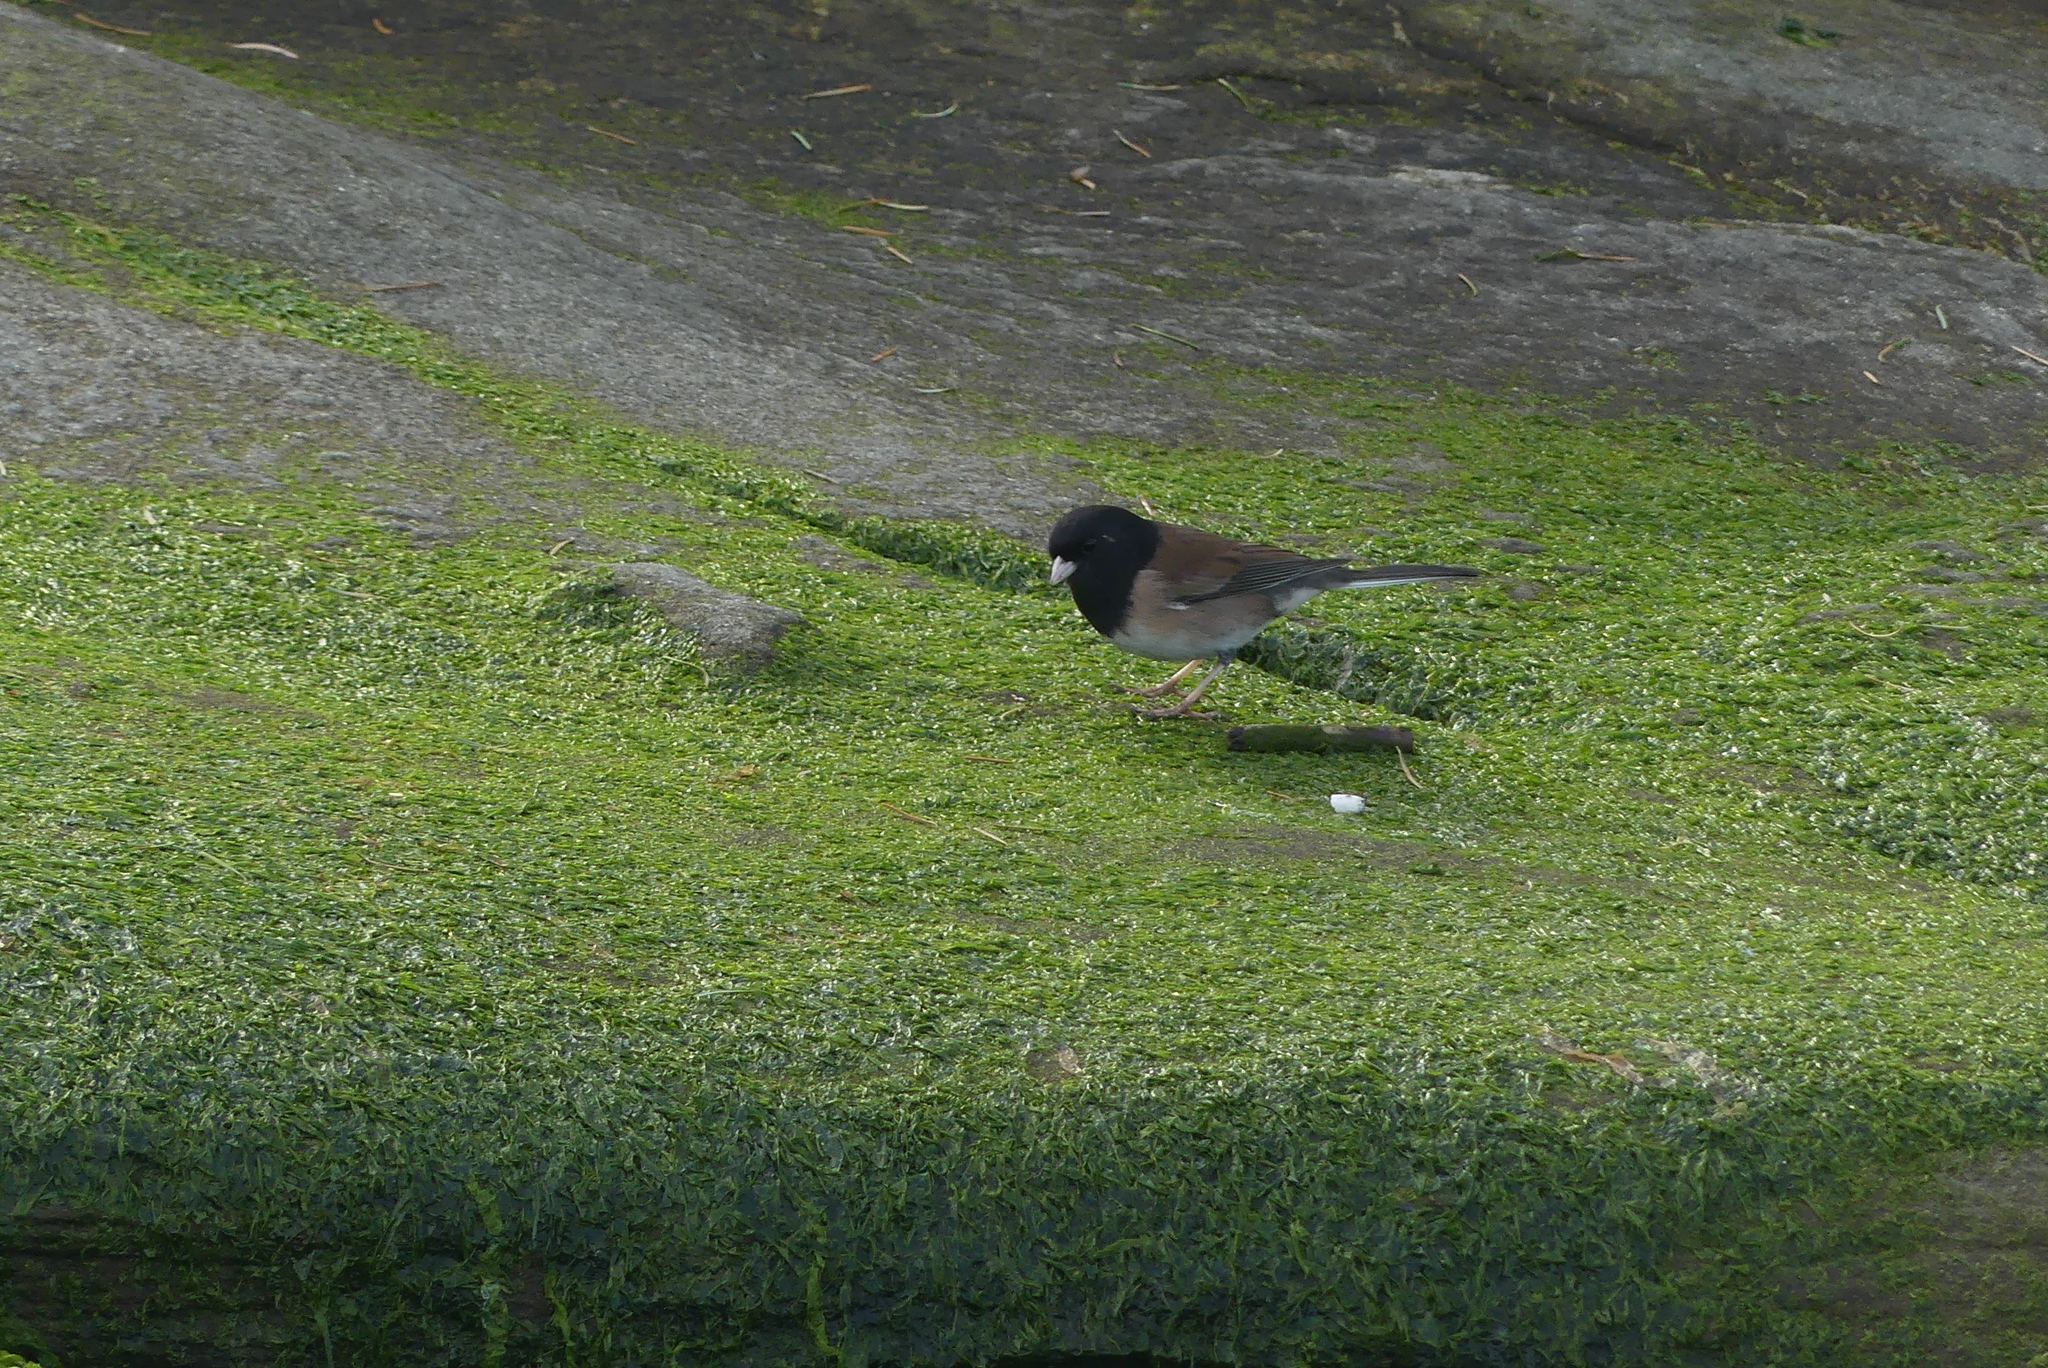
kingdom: Animalia
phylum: Chordata
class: Aves
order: Passeriformes
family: Passerellidae
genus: Junco
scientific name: Junco hyemalis
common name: Dark-eyed junco
